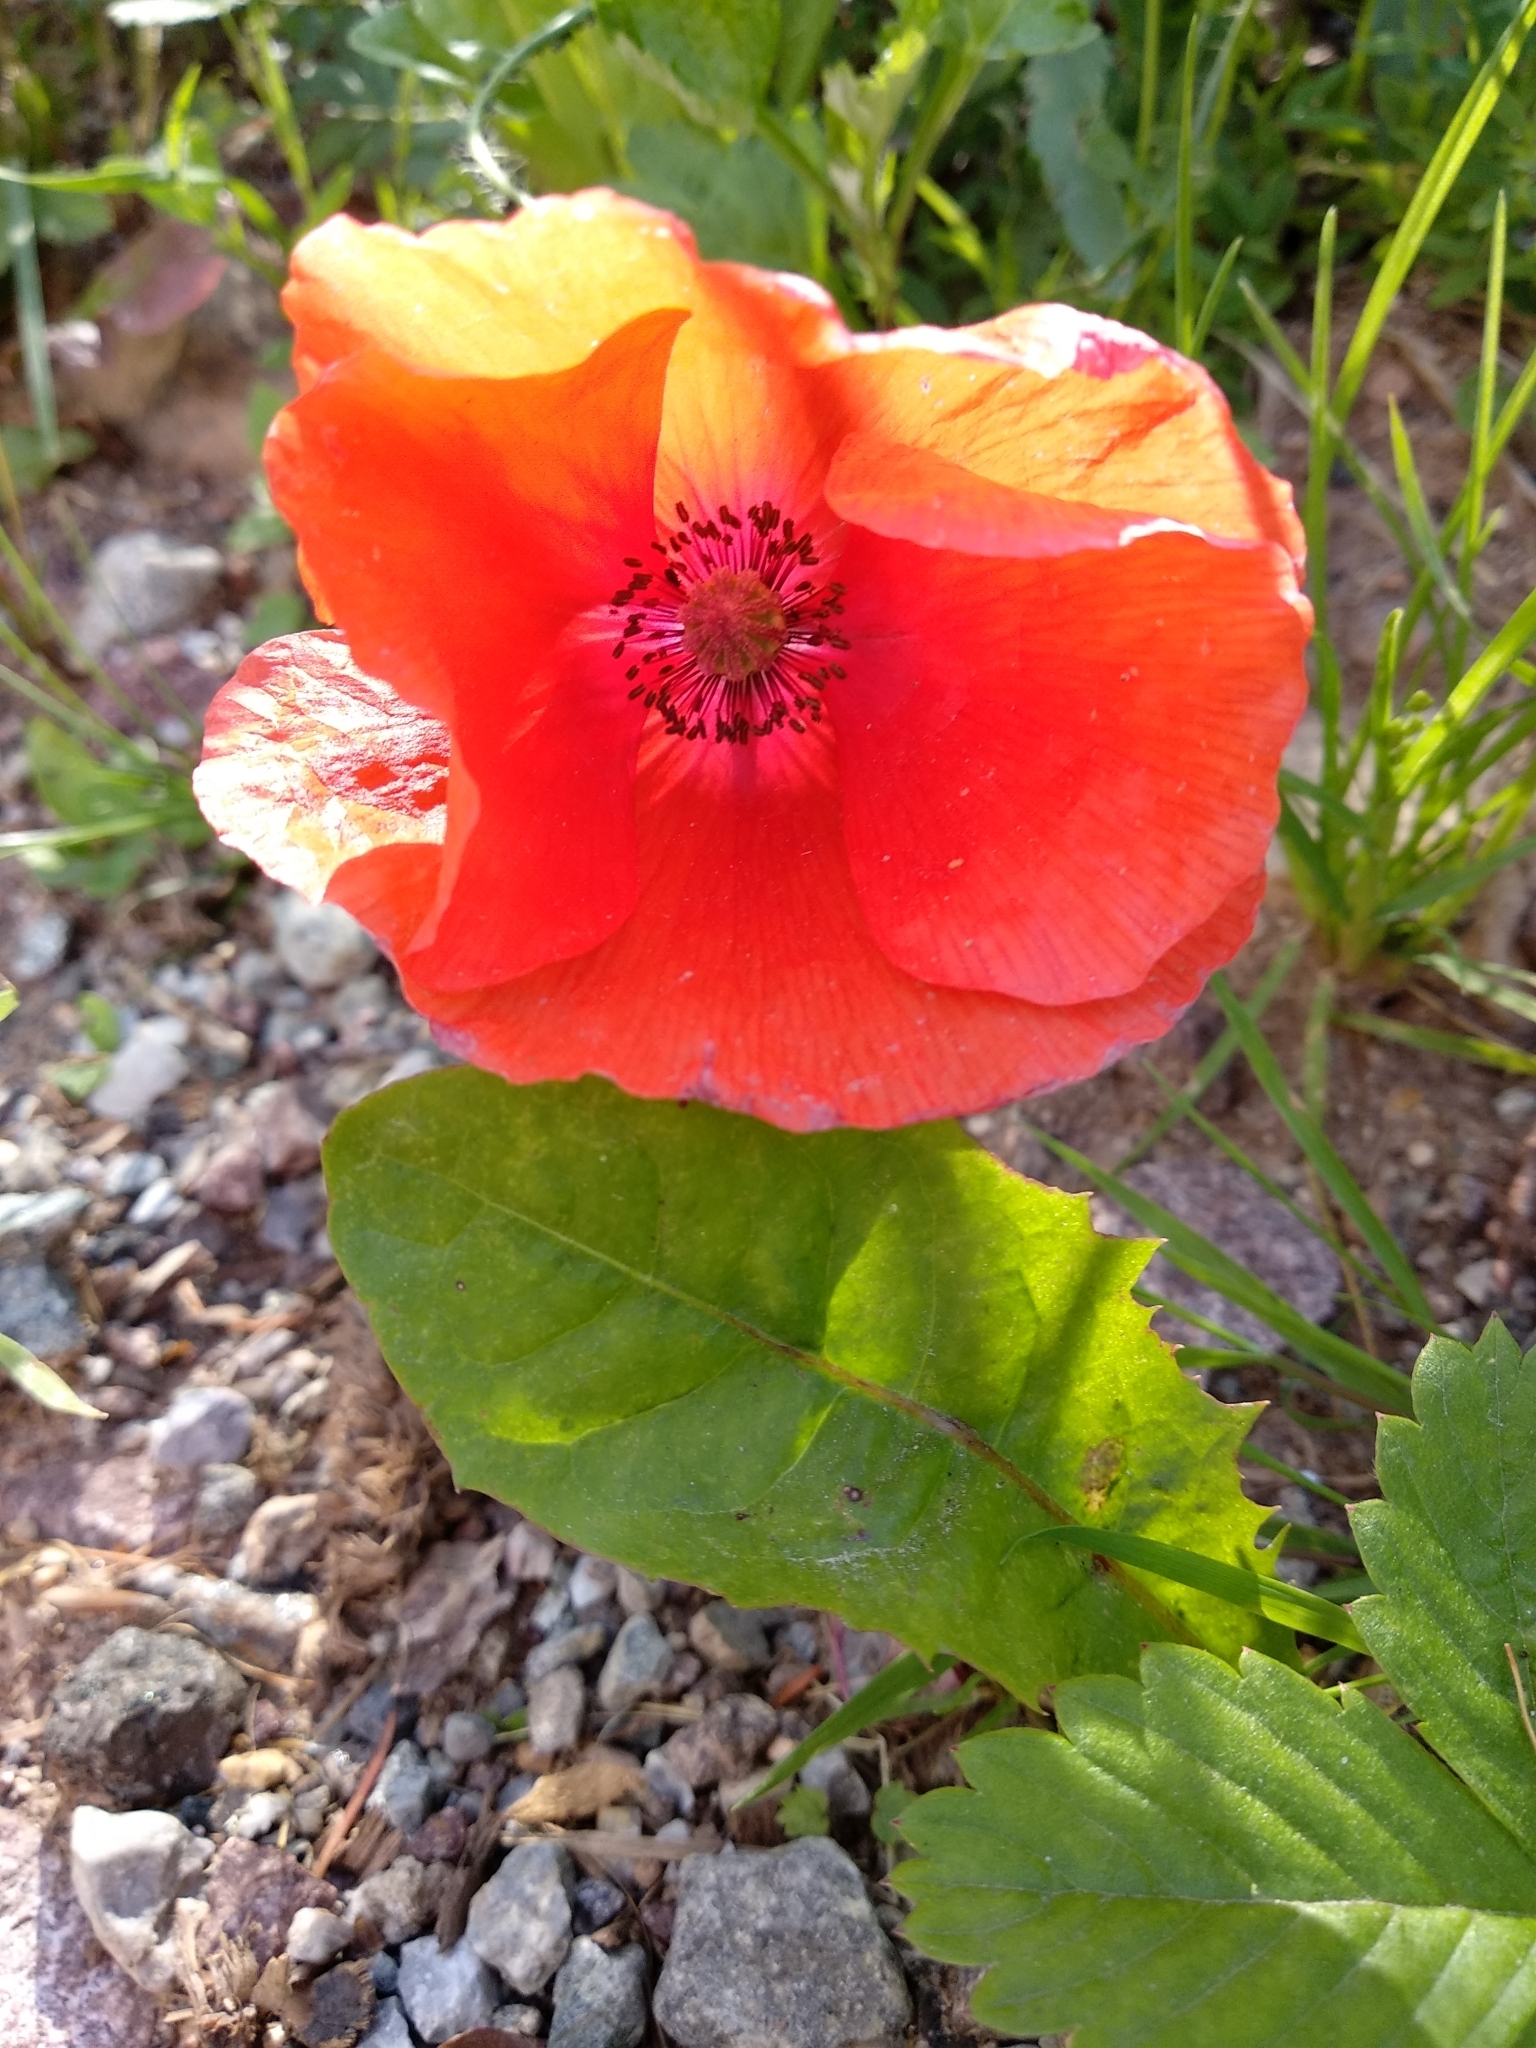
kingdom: Plantae
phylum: Tracheophyta
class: Magnoliopsida
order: Ranunculales
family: Papaveraceae
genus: Papaver
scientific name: Papaver rhoeas
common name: Corn poppy
